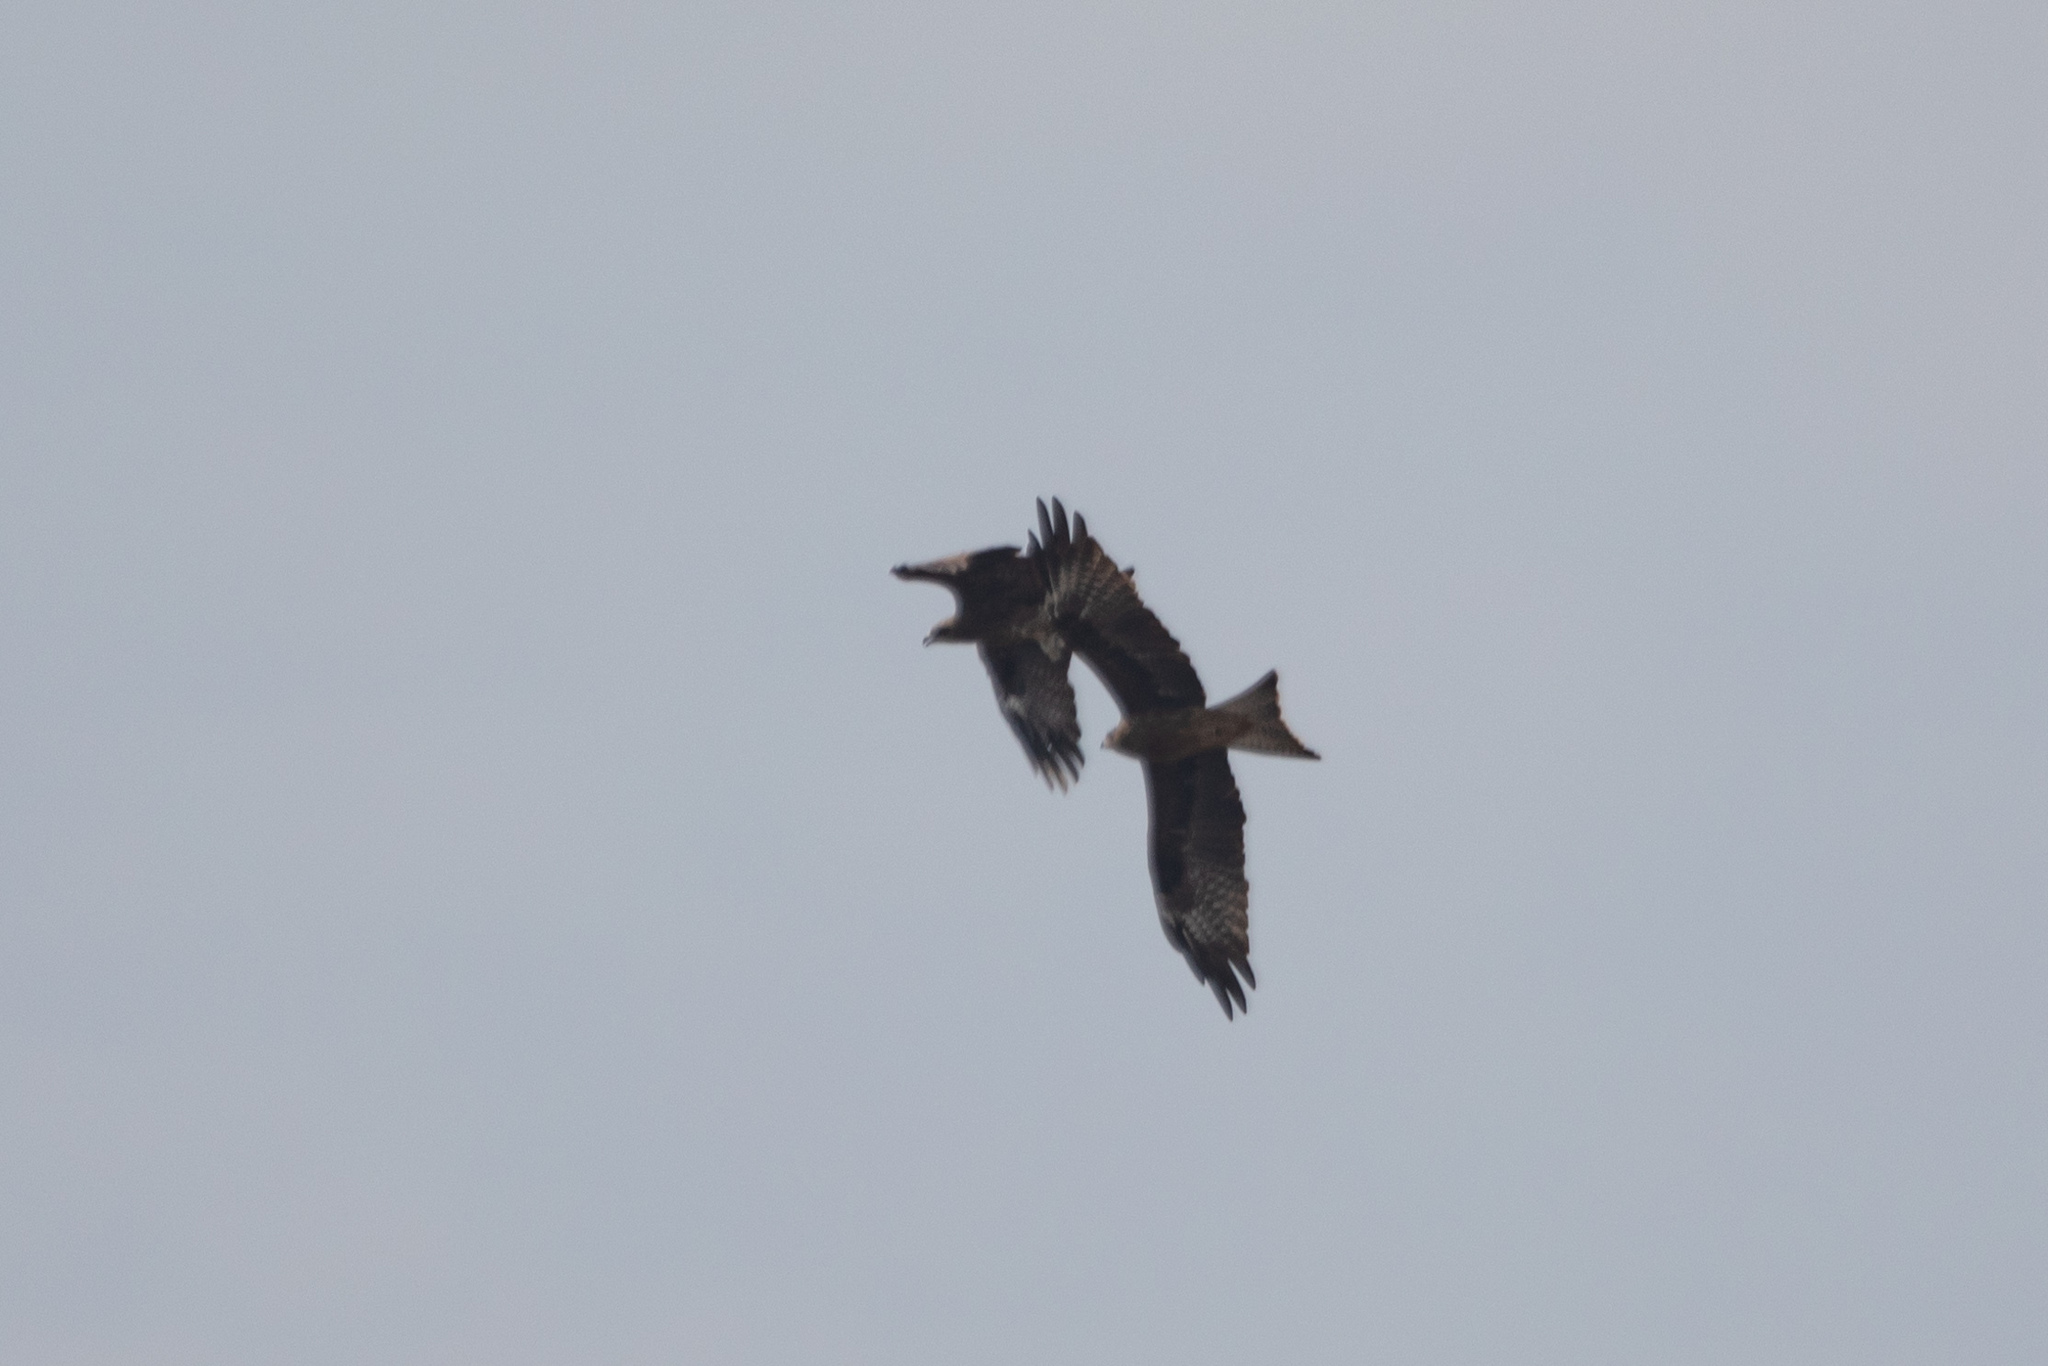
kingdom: Animalia
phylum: Chordata
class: Aves
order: Accipitriformes
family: Accipitridae
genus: Milvus
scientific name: Milvus migrans
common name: Black kite
